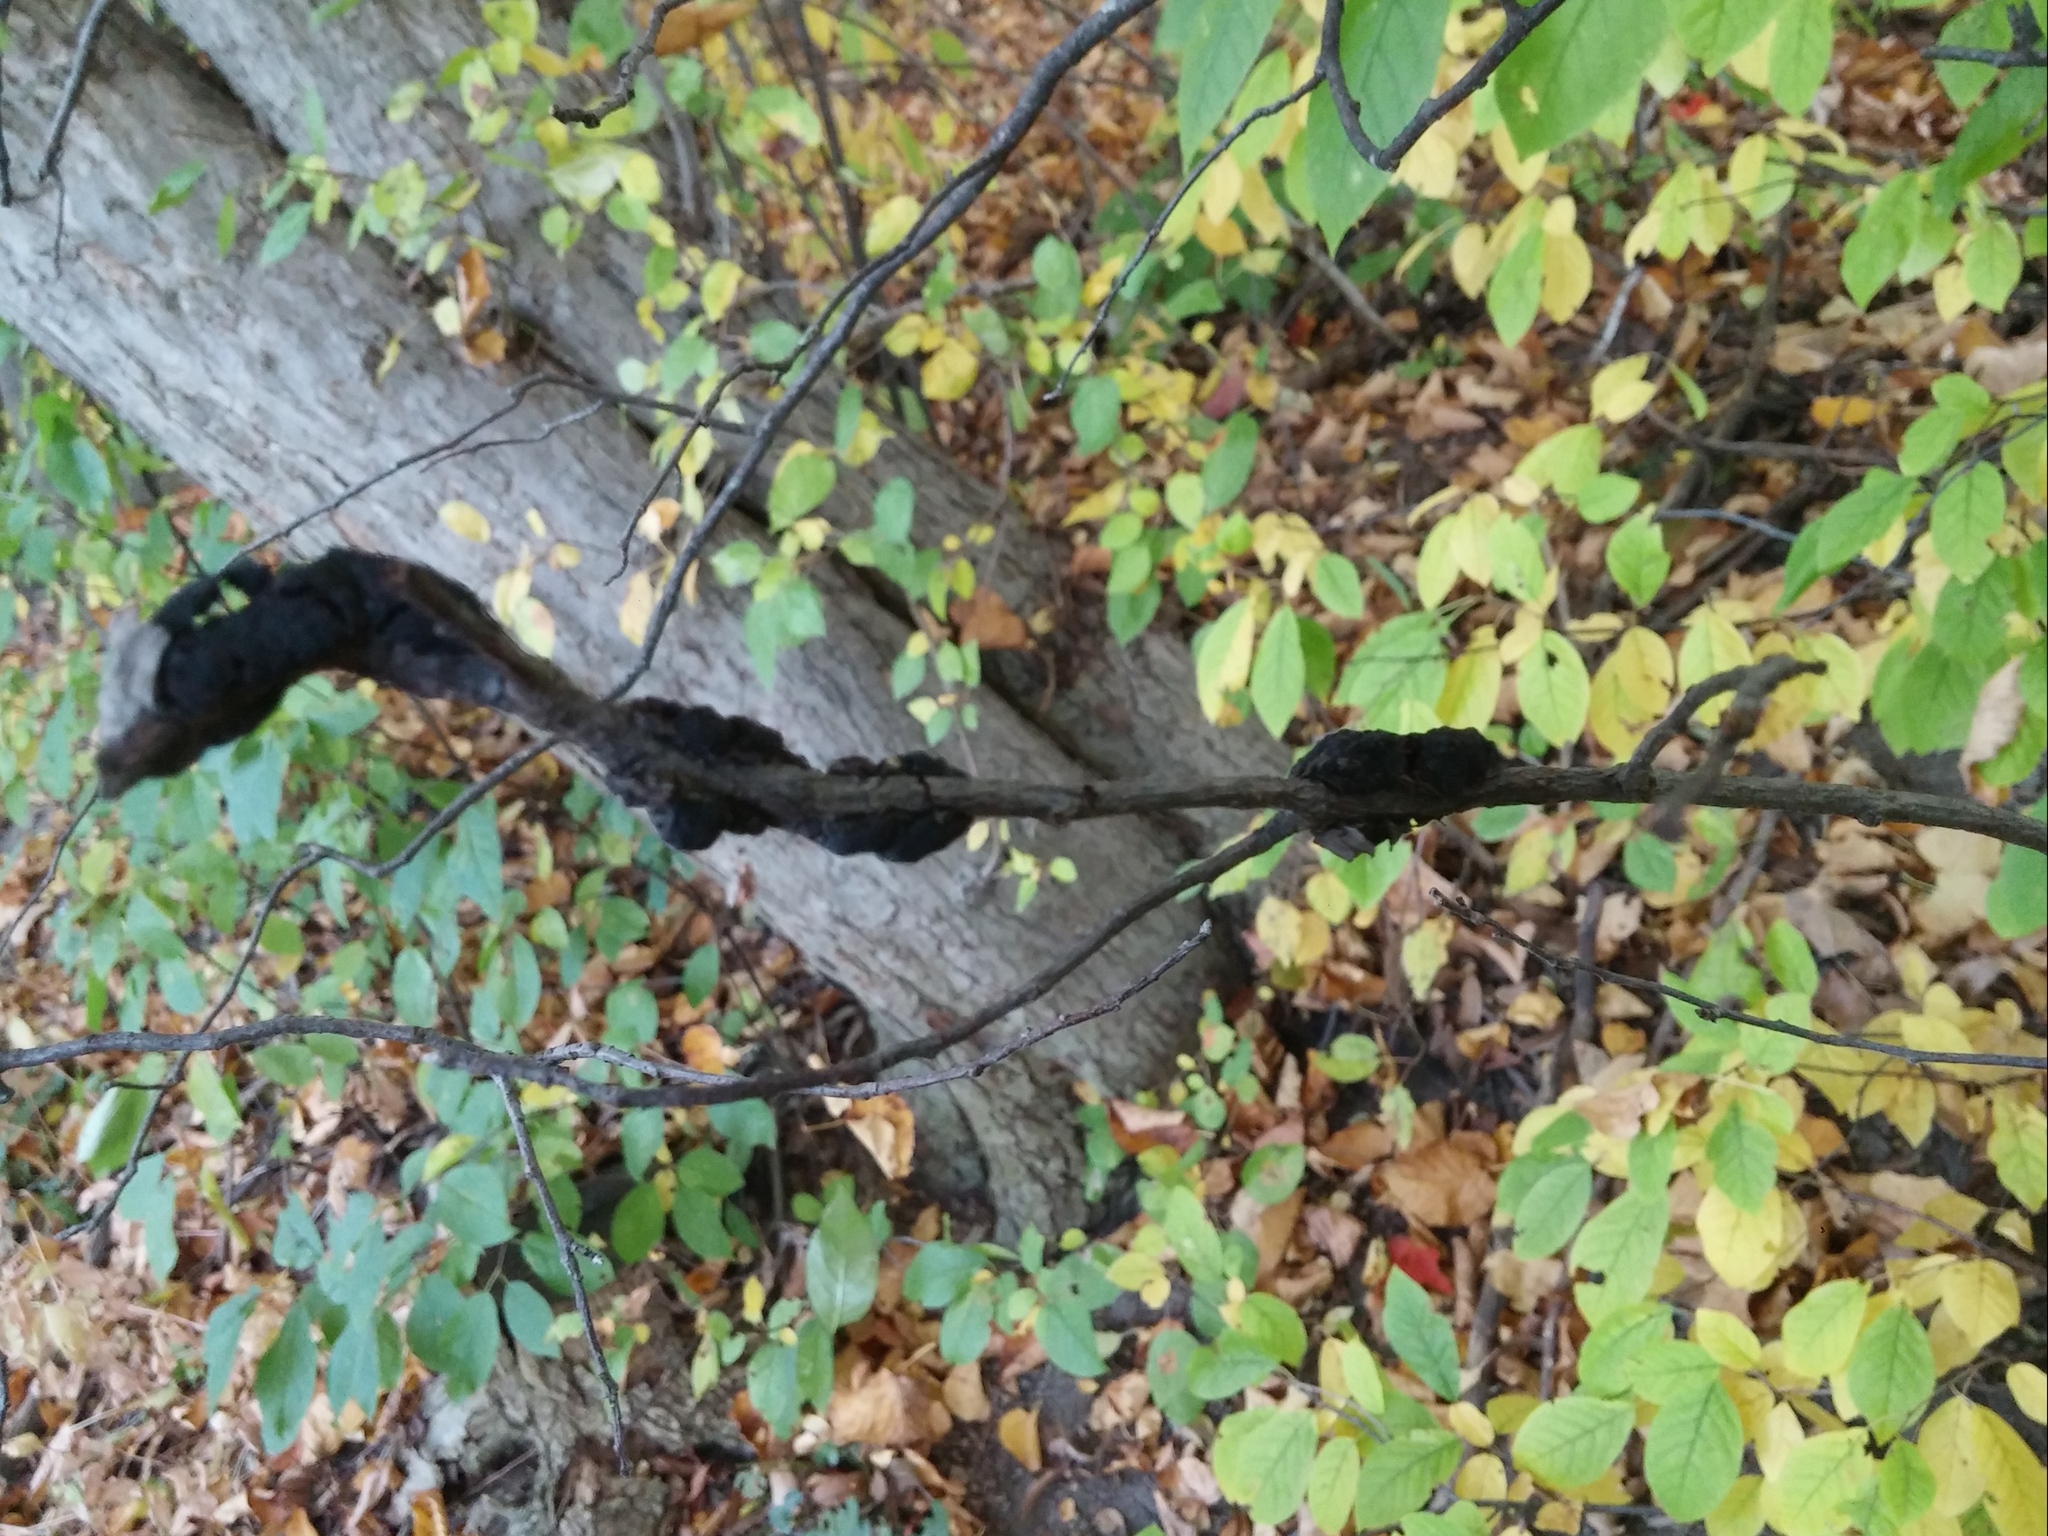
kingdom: Fungi
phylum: Ascomycota
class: Dothideomycetes
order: Venturiales
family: Venturiaceae
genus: Apiosporina
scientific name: Apiosporina morbosa
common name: Black knot
